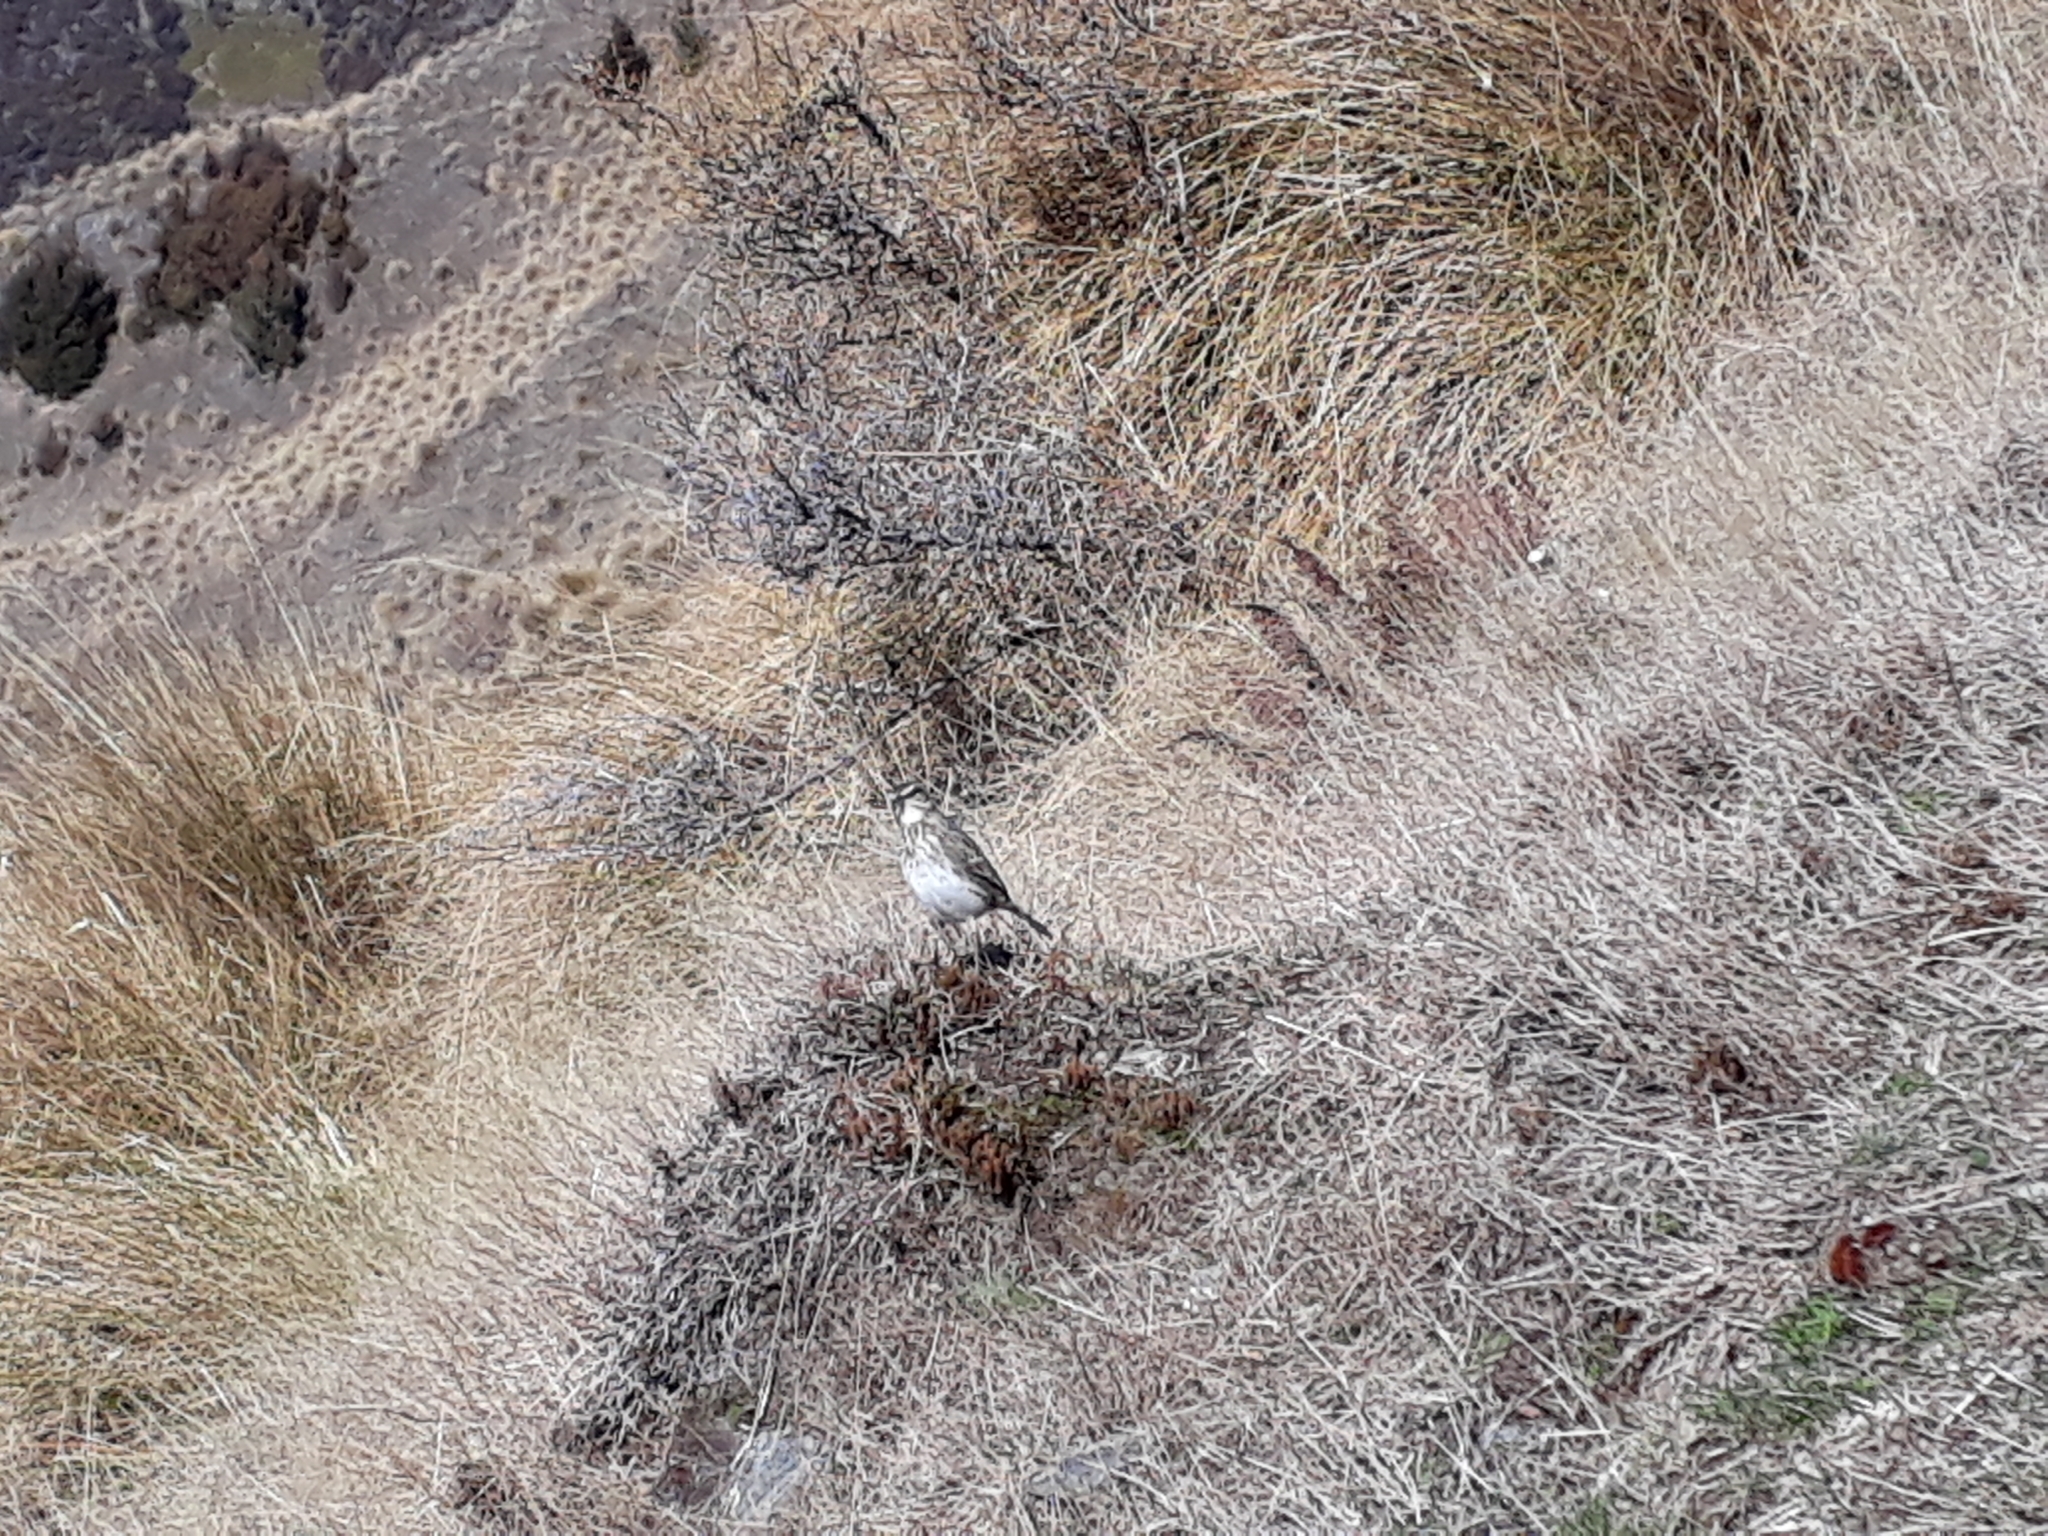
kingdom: Animalia
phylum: Chordata
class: Aves
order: Passeriformes
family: Motacillidae
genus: Anthus
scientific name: Anthus novaeseelandiae
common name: New zealand pipit
